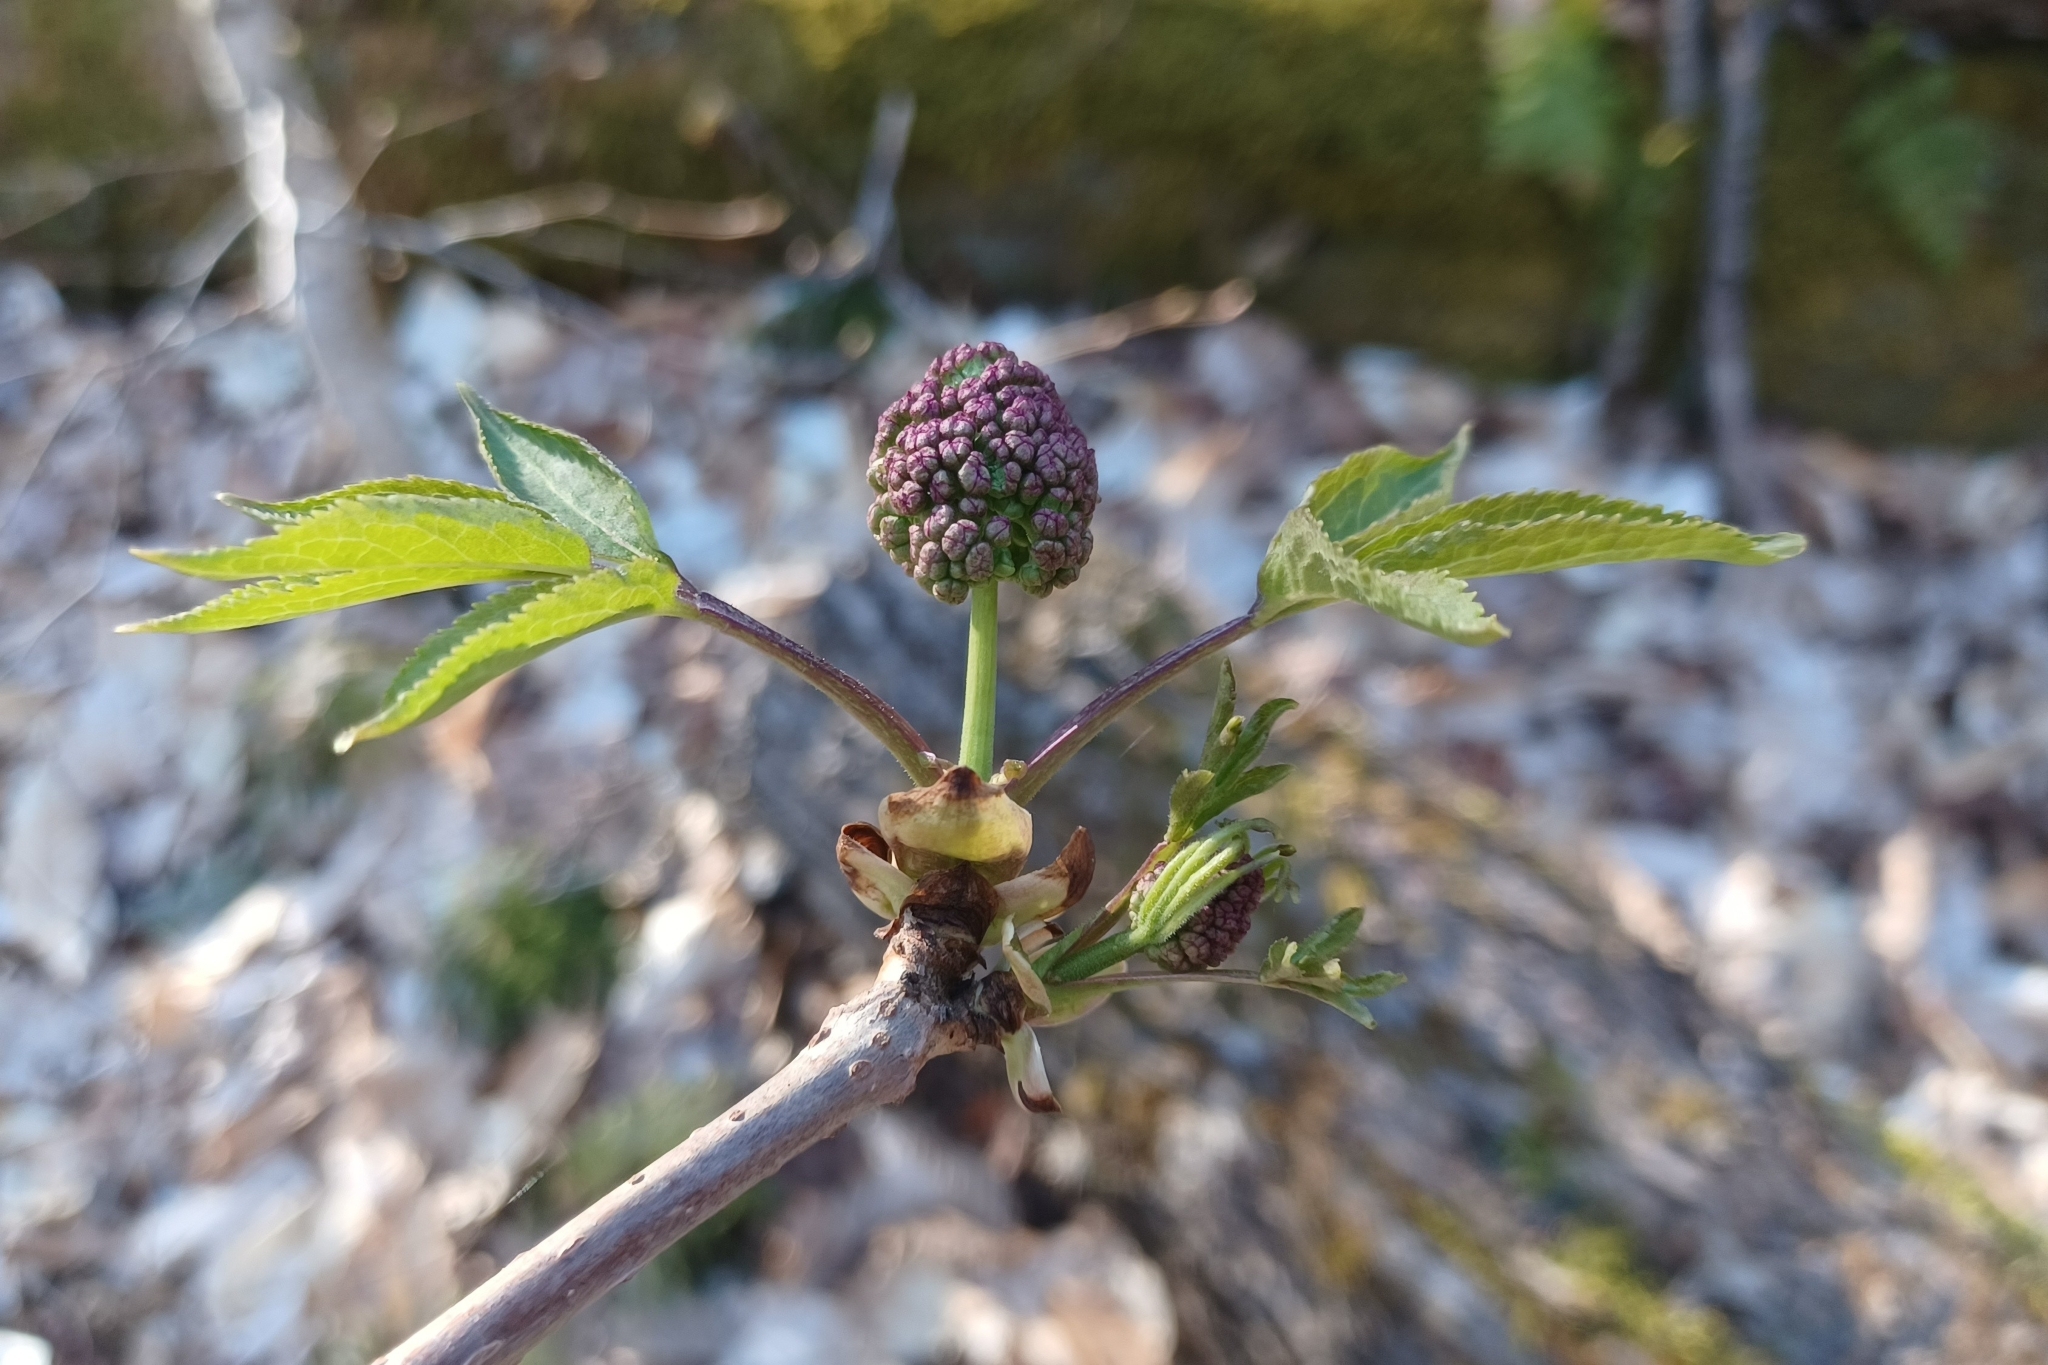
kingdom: Plantae
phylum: Tracheophyta
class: Magnoliopsida
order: Dipsacales
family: Viburnaceae
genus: Sambucus
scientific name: Sambucus racemosa
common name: Red-berried elder
